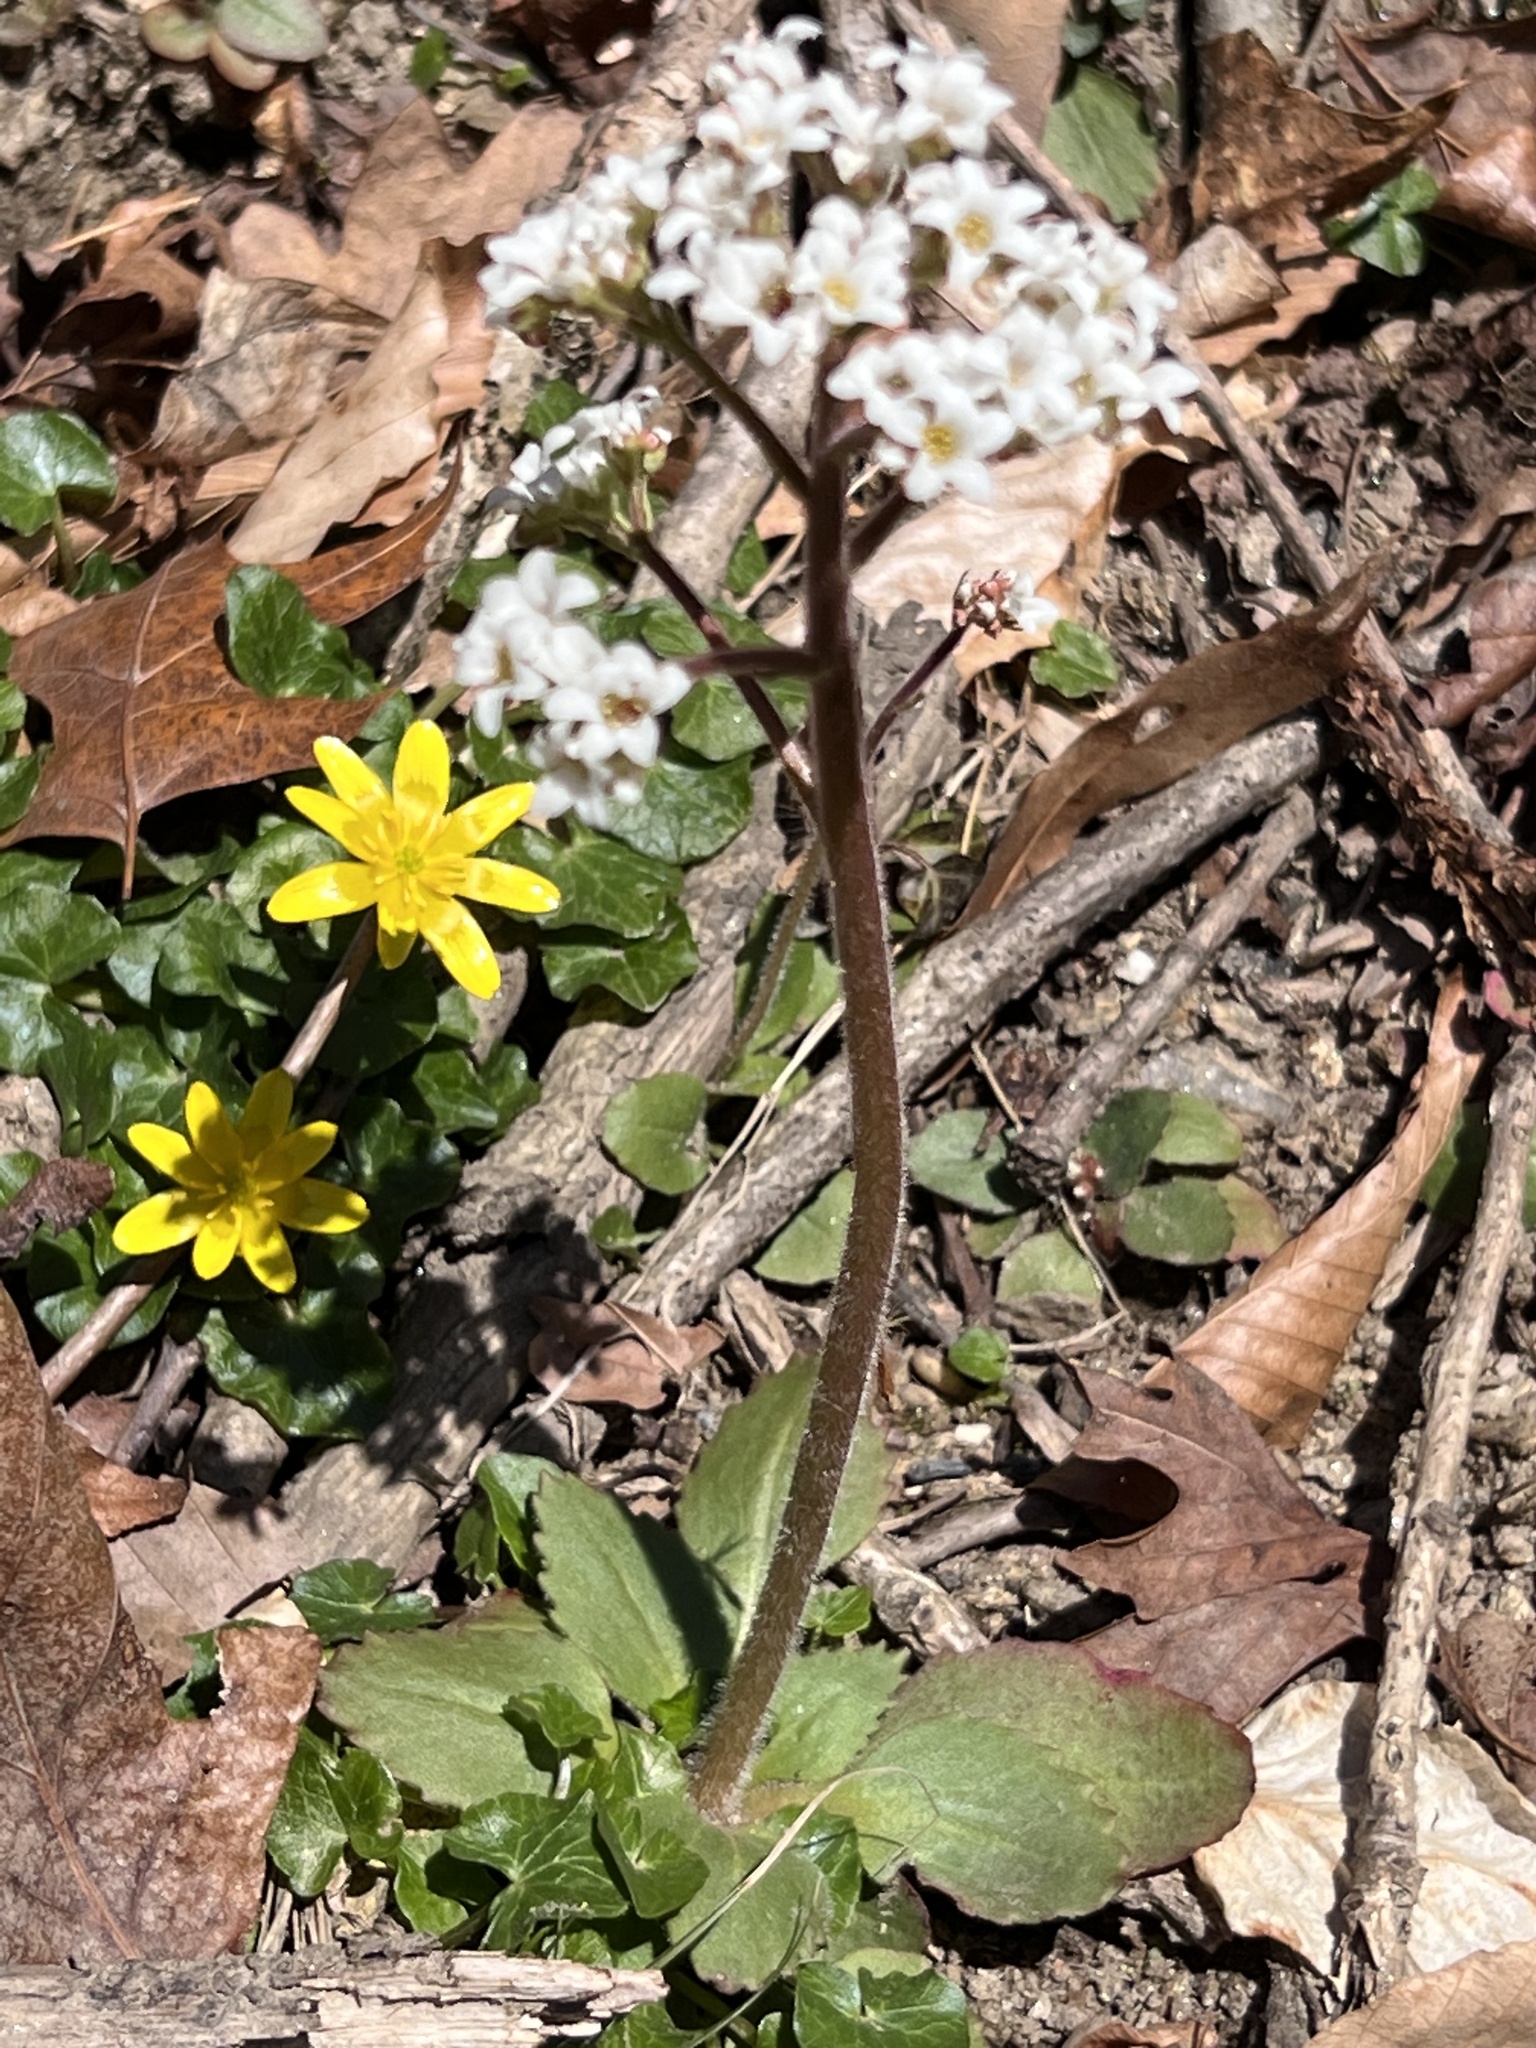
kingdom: Plantae
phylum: Tracheophyta
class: Magnoliopsida
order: Saxifragales
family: Saxifragaceae
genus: Micranthes
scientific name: Micranthes virginiensis
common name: Early saxifrage
